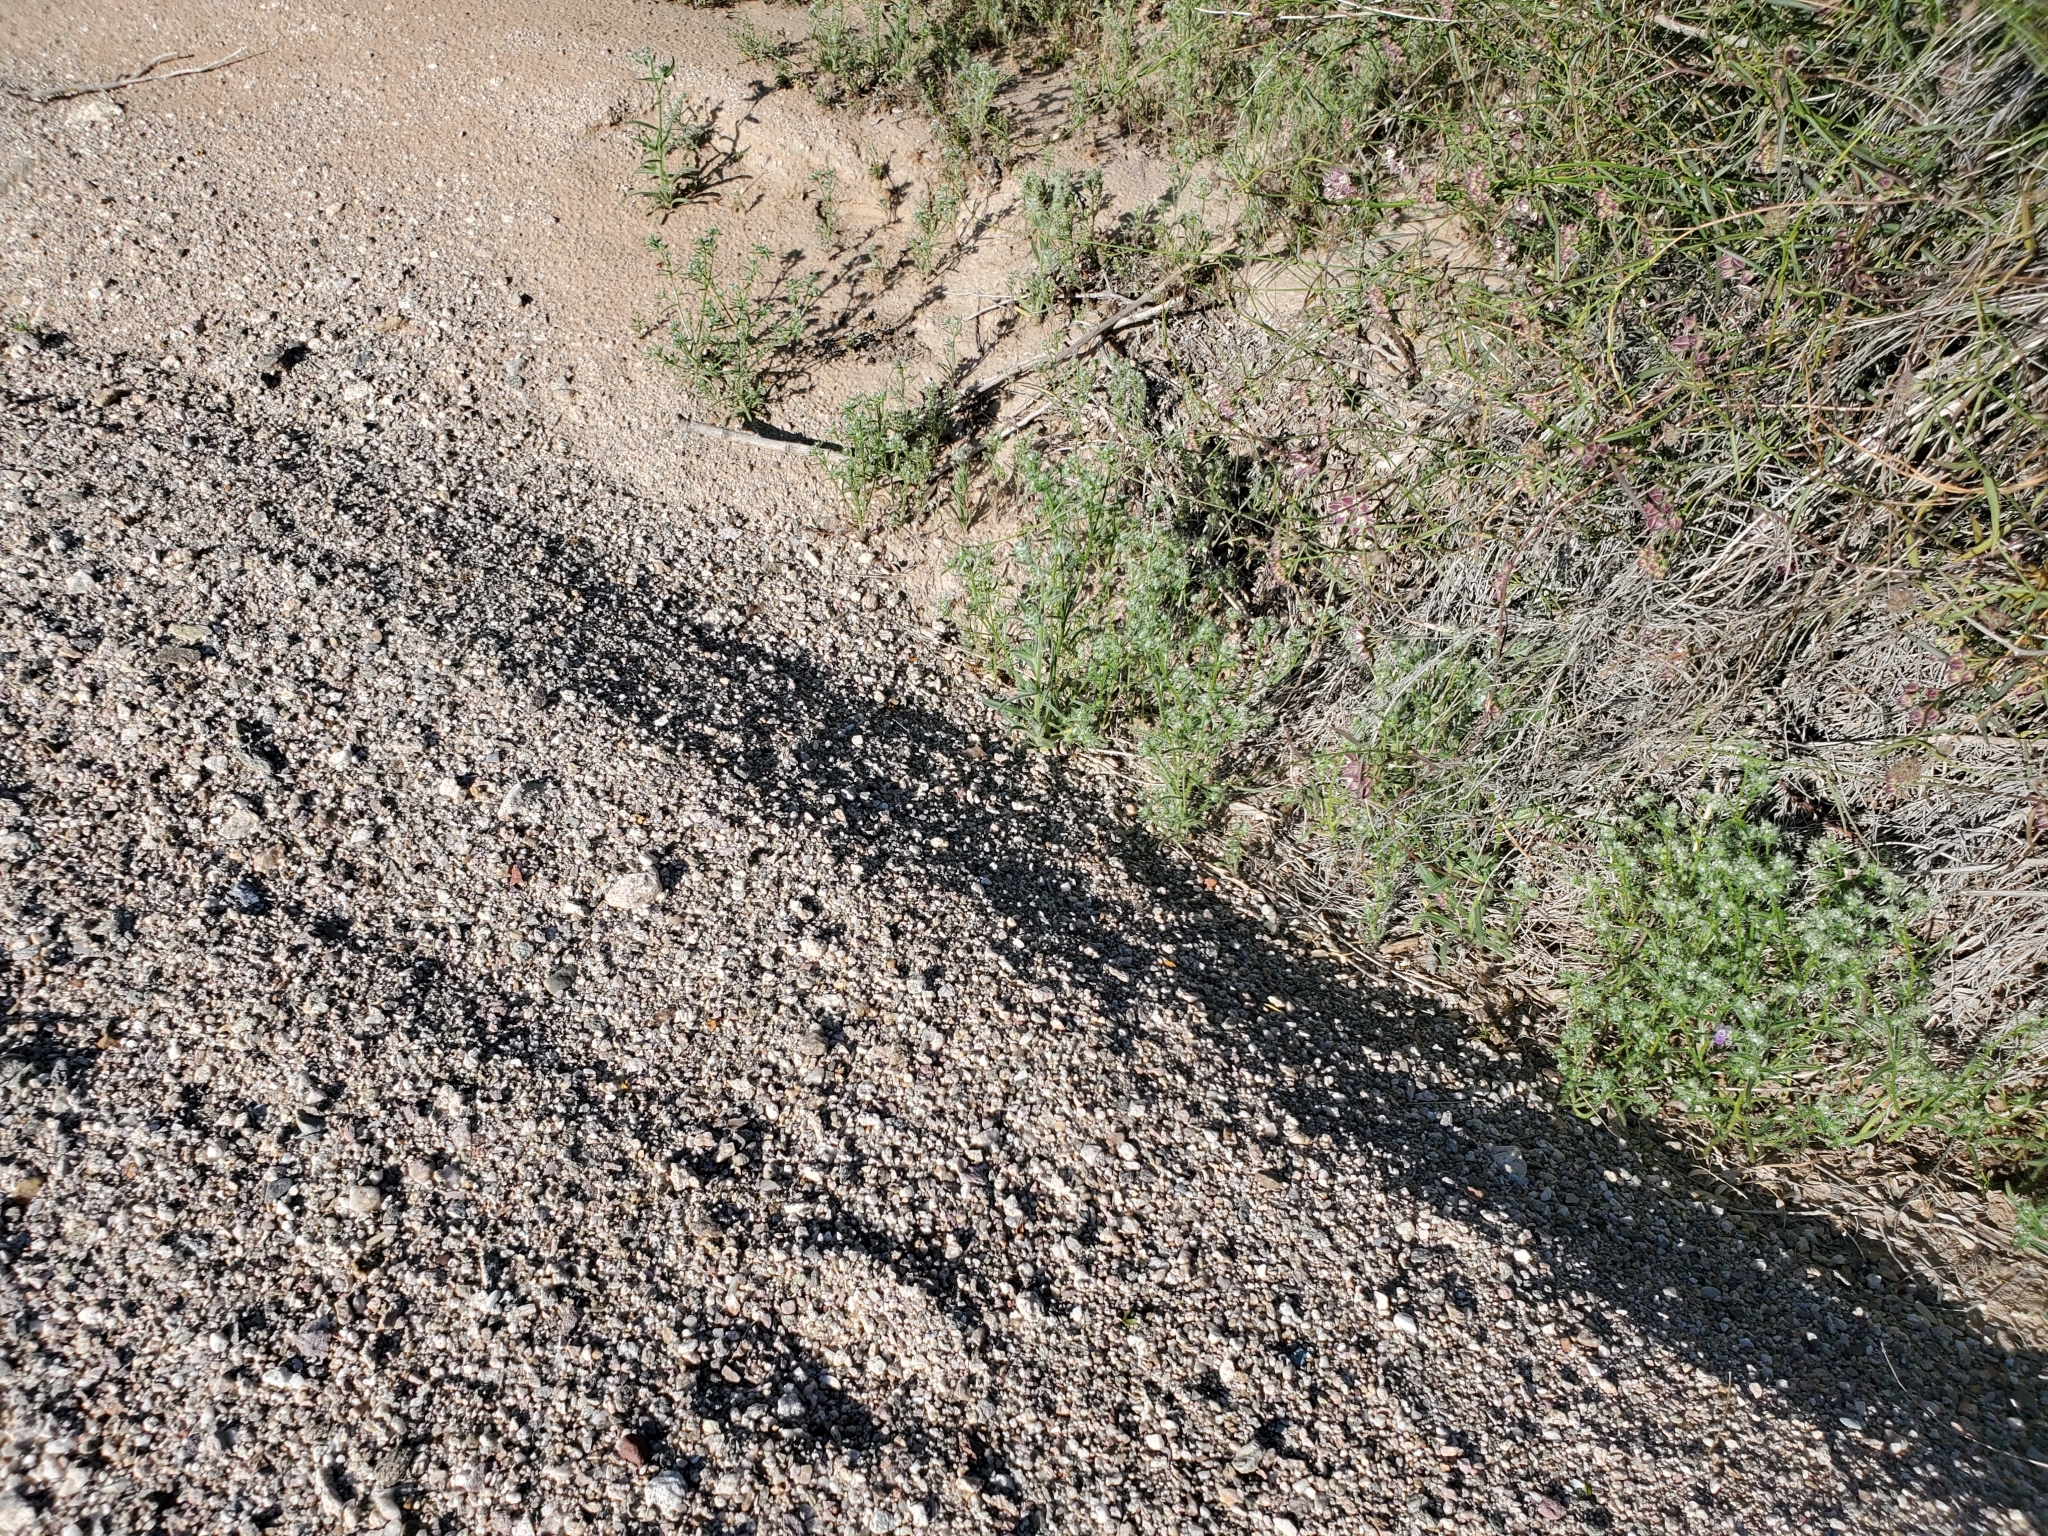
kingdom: Plantae
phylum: Tracheophyta
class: Magnoliopsida
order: Boraginales
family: Boraginaceae
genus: Cryptantha
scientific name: Cryptantha maritima
